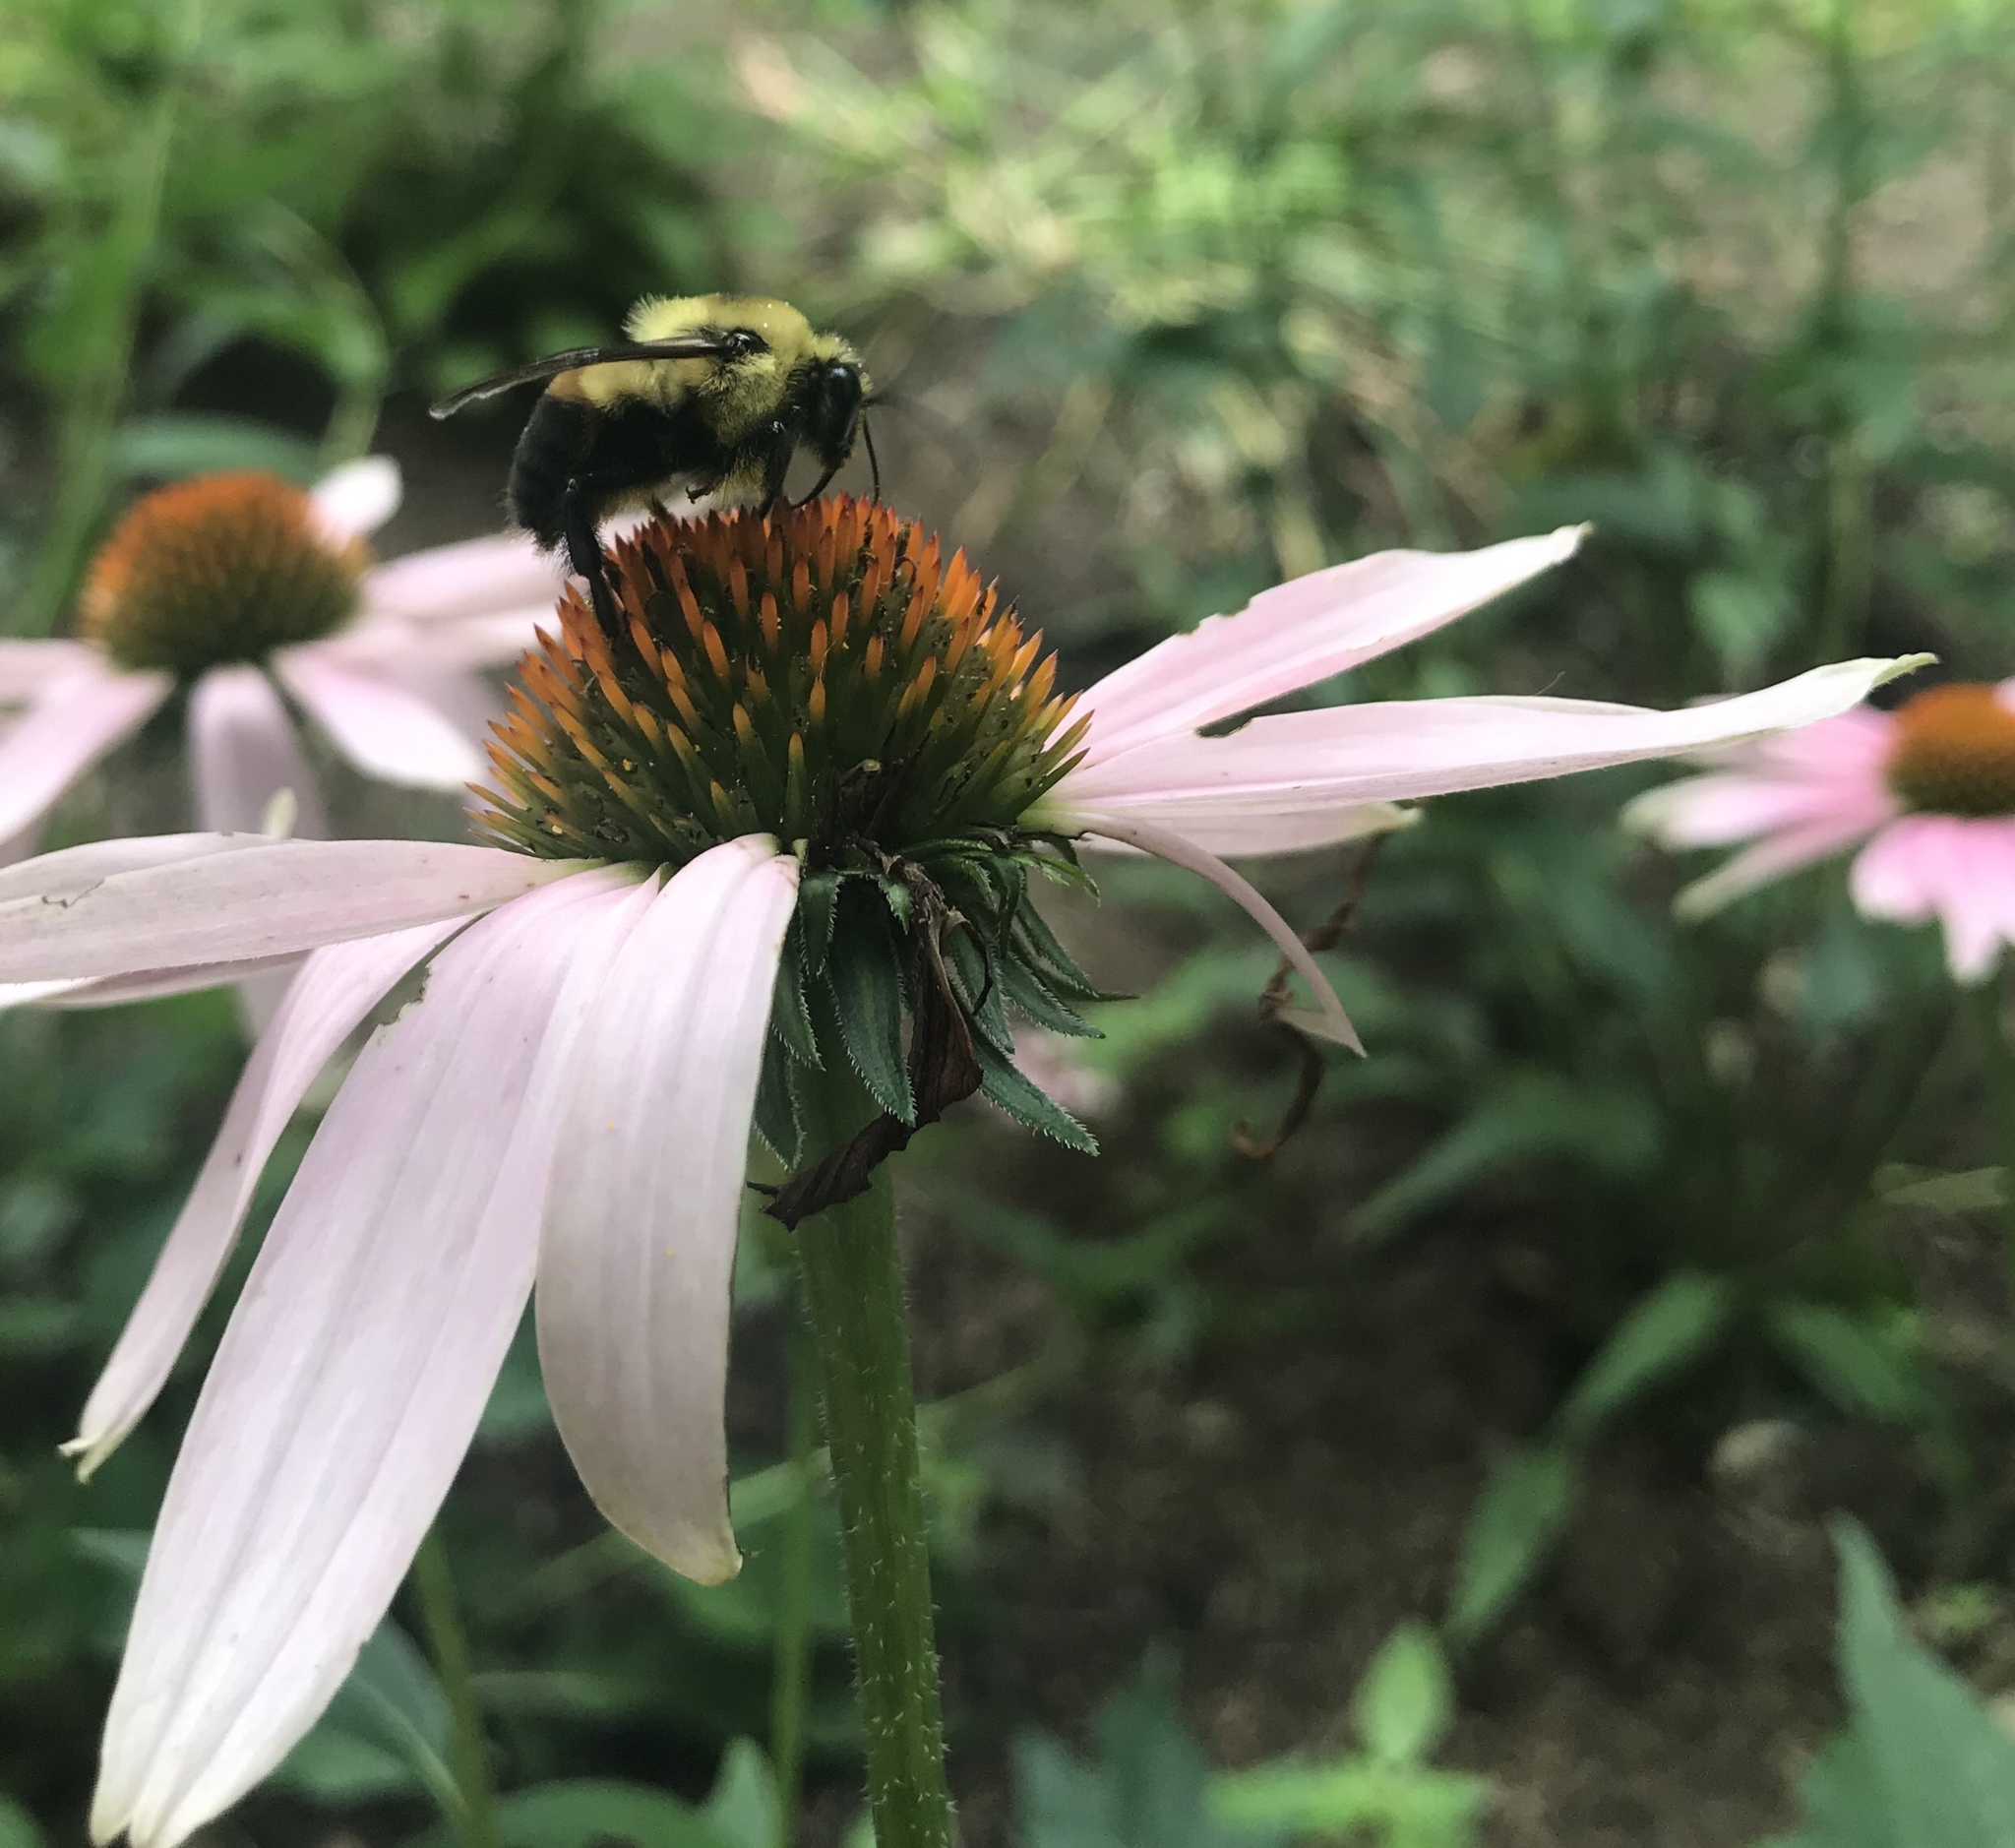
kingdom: Animalia
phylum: Arthropoda
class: Insecta
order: Hymenoptera
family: Apidae
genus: Bombus
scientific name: Bombus griseocollis
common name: Brown-belted bumble bee
